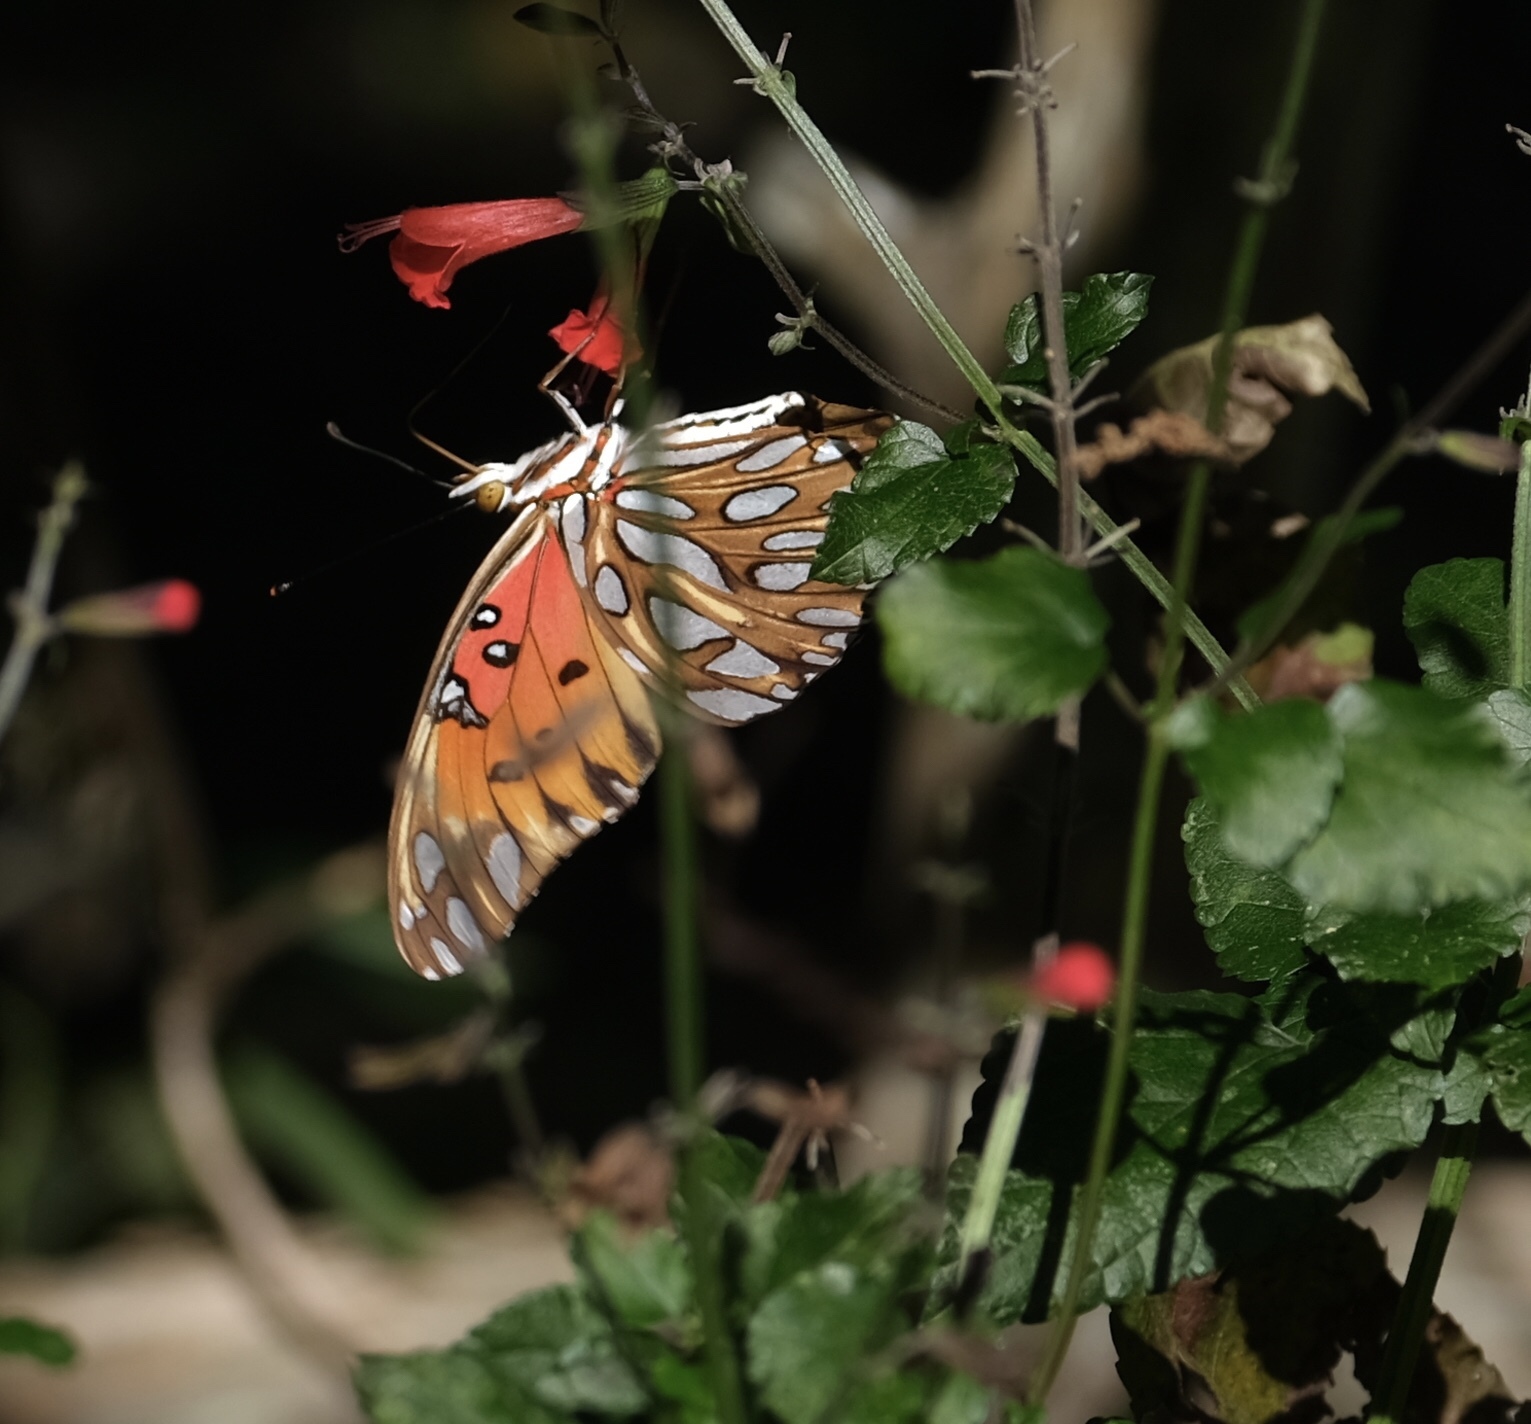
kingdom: Animalia
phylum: Arthropoda
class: Insecta
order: Lepidoptera
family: Nymphalidae
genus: Dione
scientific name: Dione vanillae
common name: Gulf fritillary
